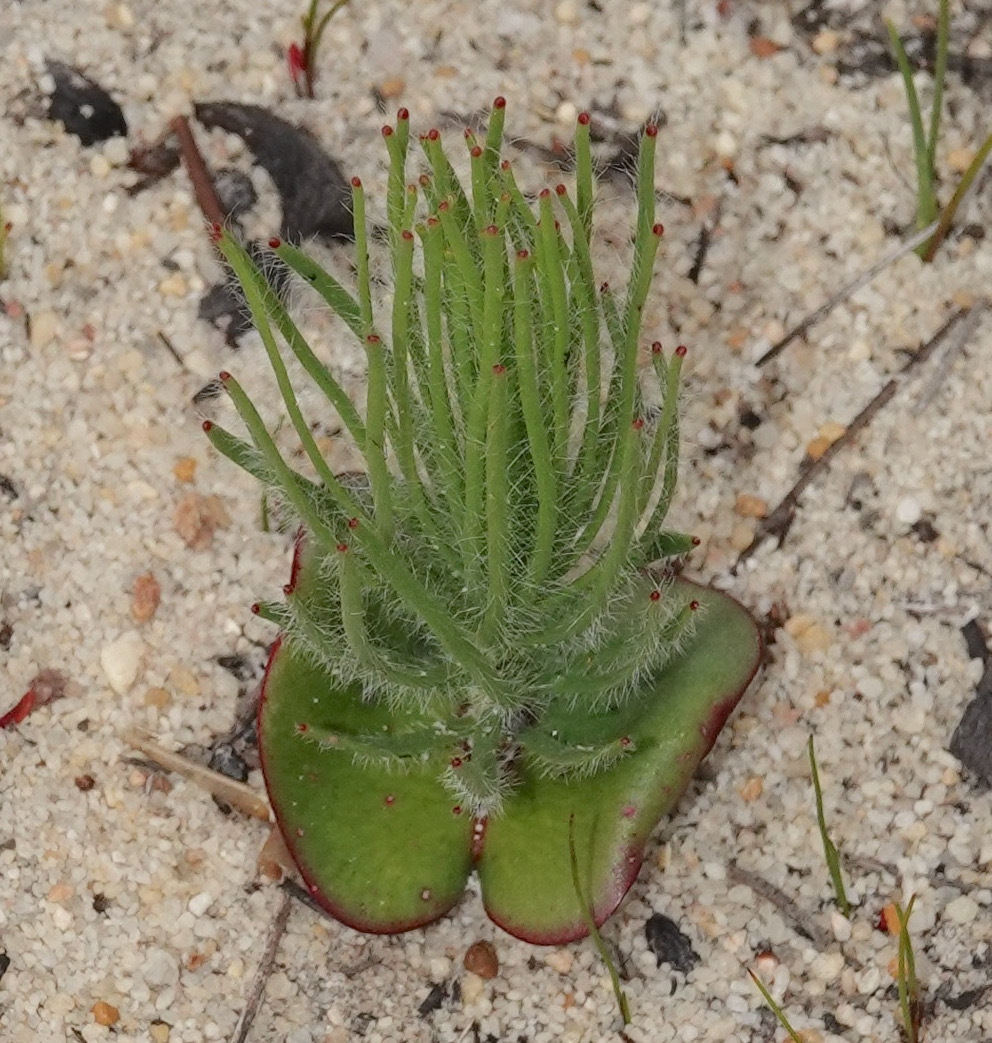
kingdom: Plantae
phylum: Tracheophyta
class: Magnoliopsida
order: Proteales
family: Proteaceae
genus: Leucadendron
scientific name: Leucadendron platyspermum
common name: Plate-seed conebush
